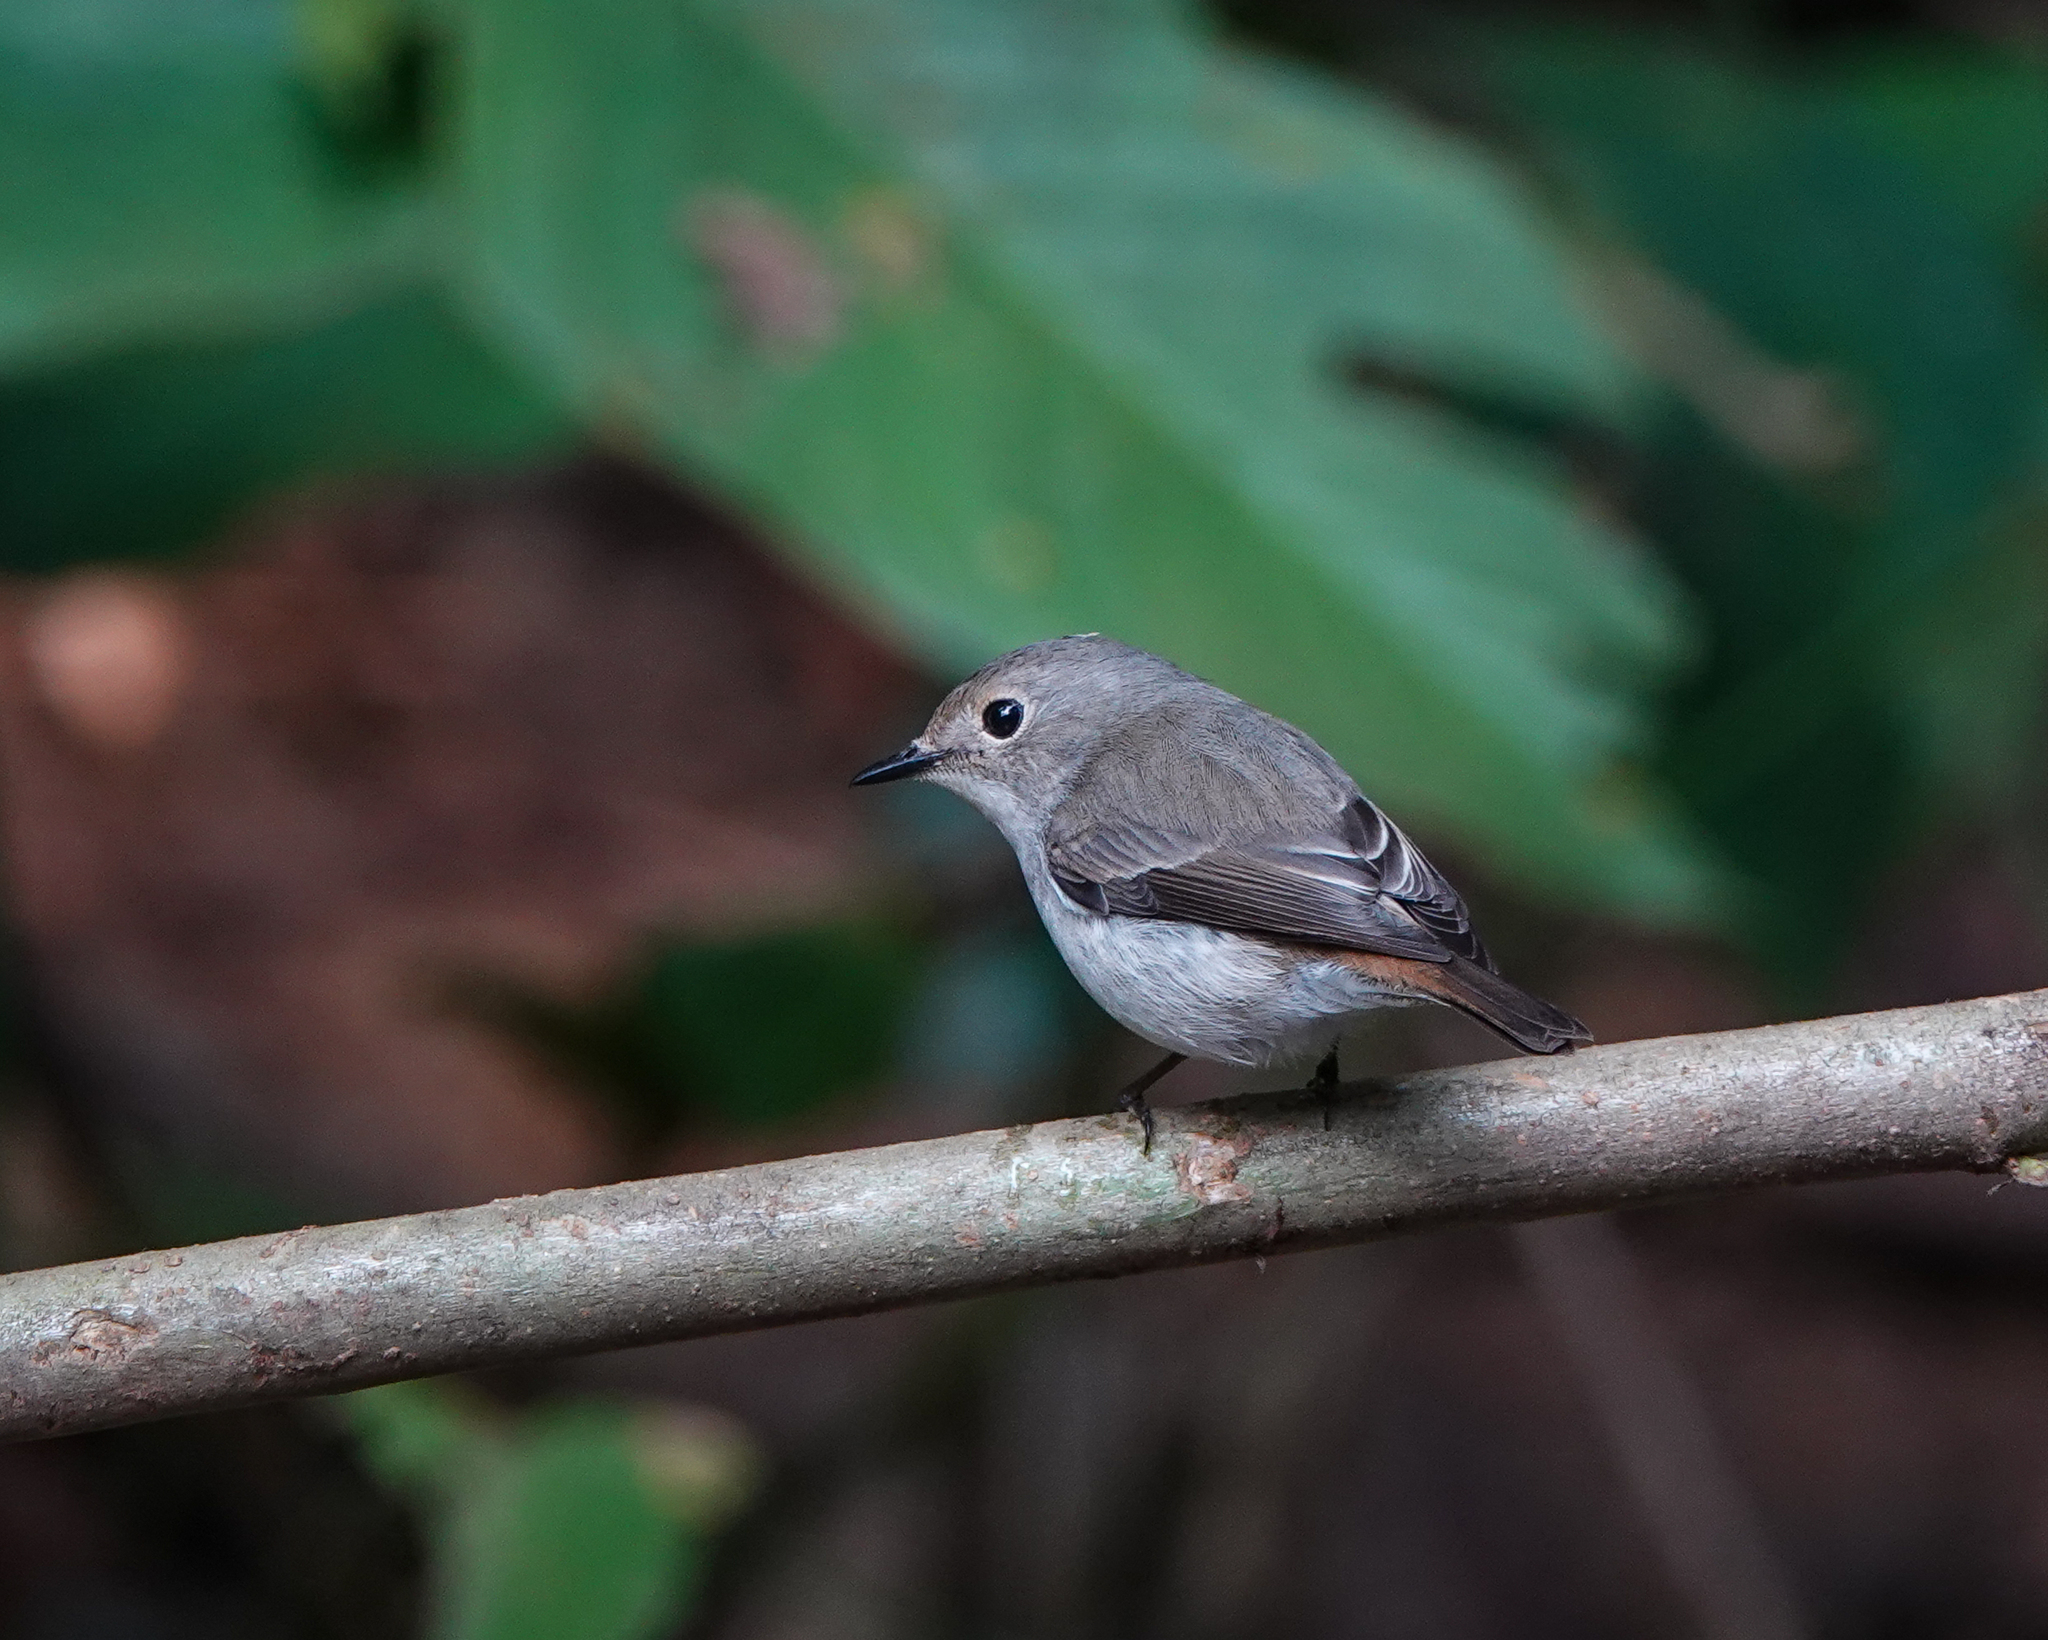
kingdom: Animalia
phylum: Chordata
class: Aves
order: Passeriformes
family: Muscicapidae
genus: Ficedula
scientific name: Ficedula westermanni
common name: Little pied flycatcher
